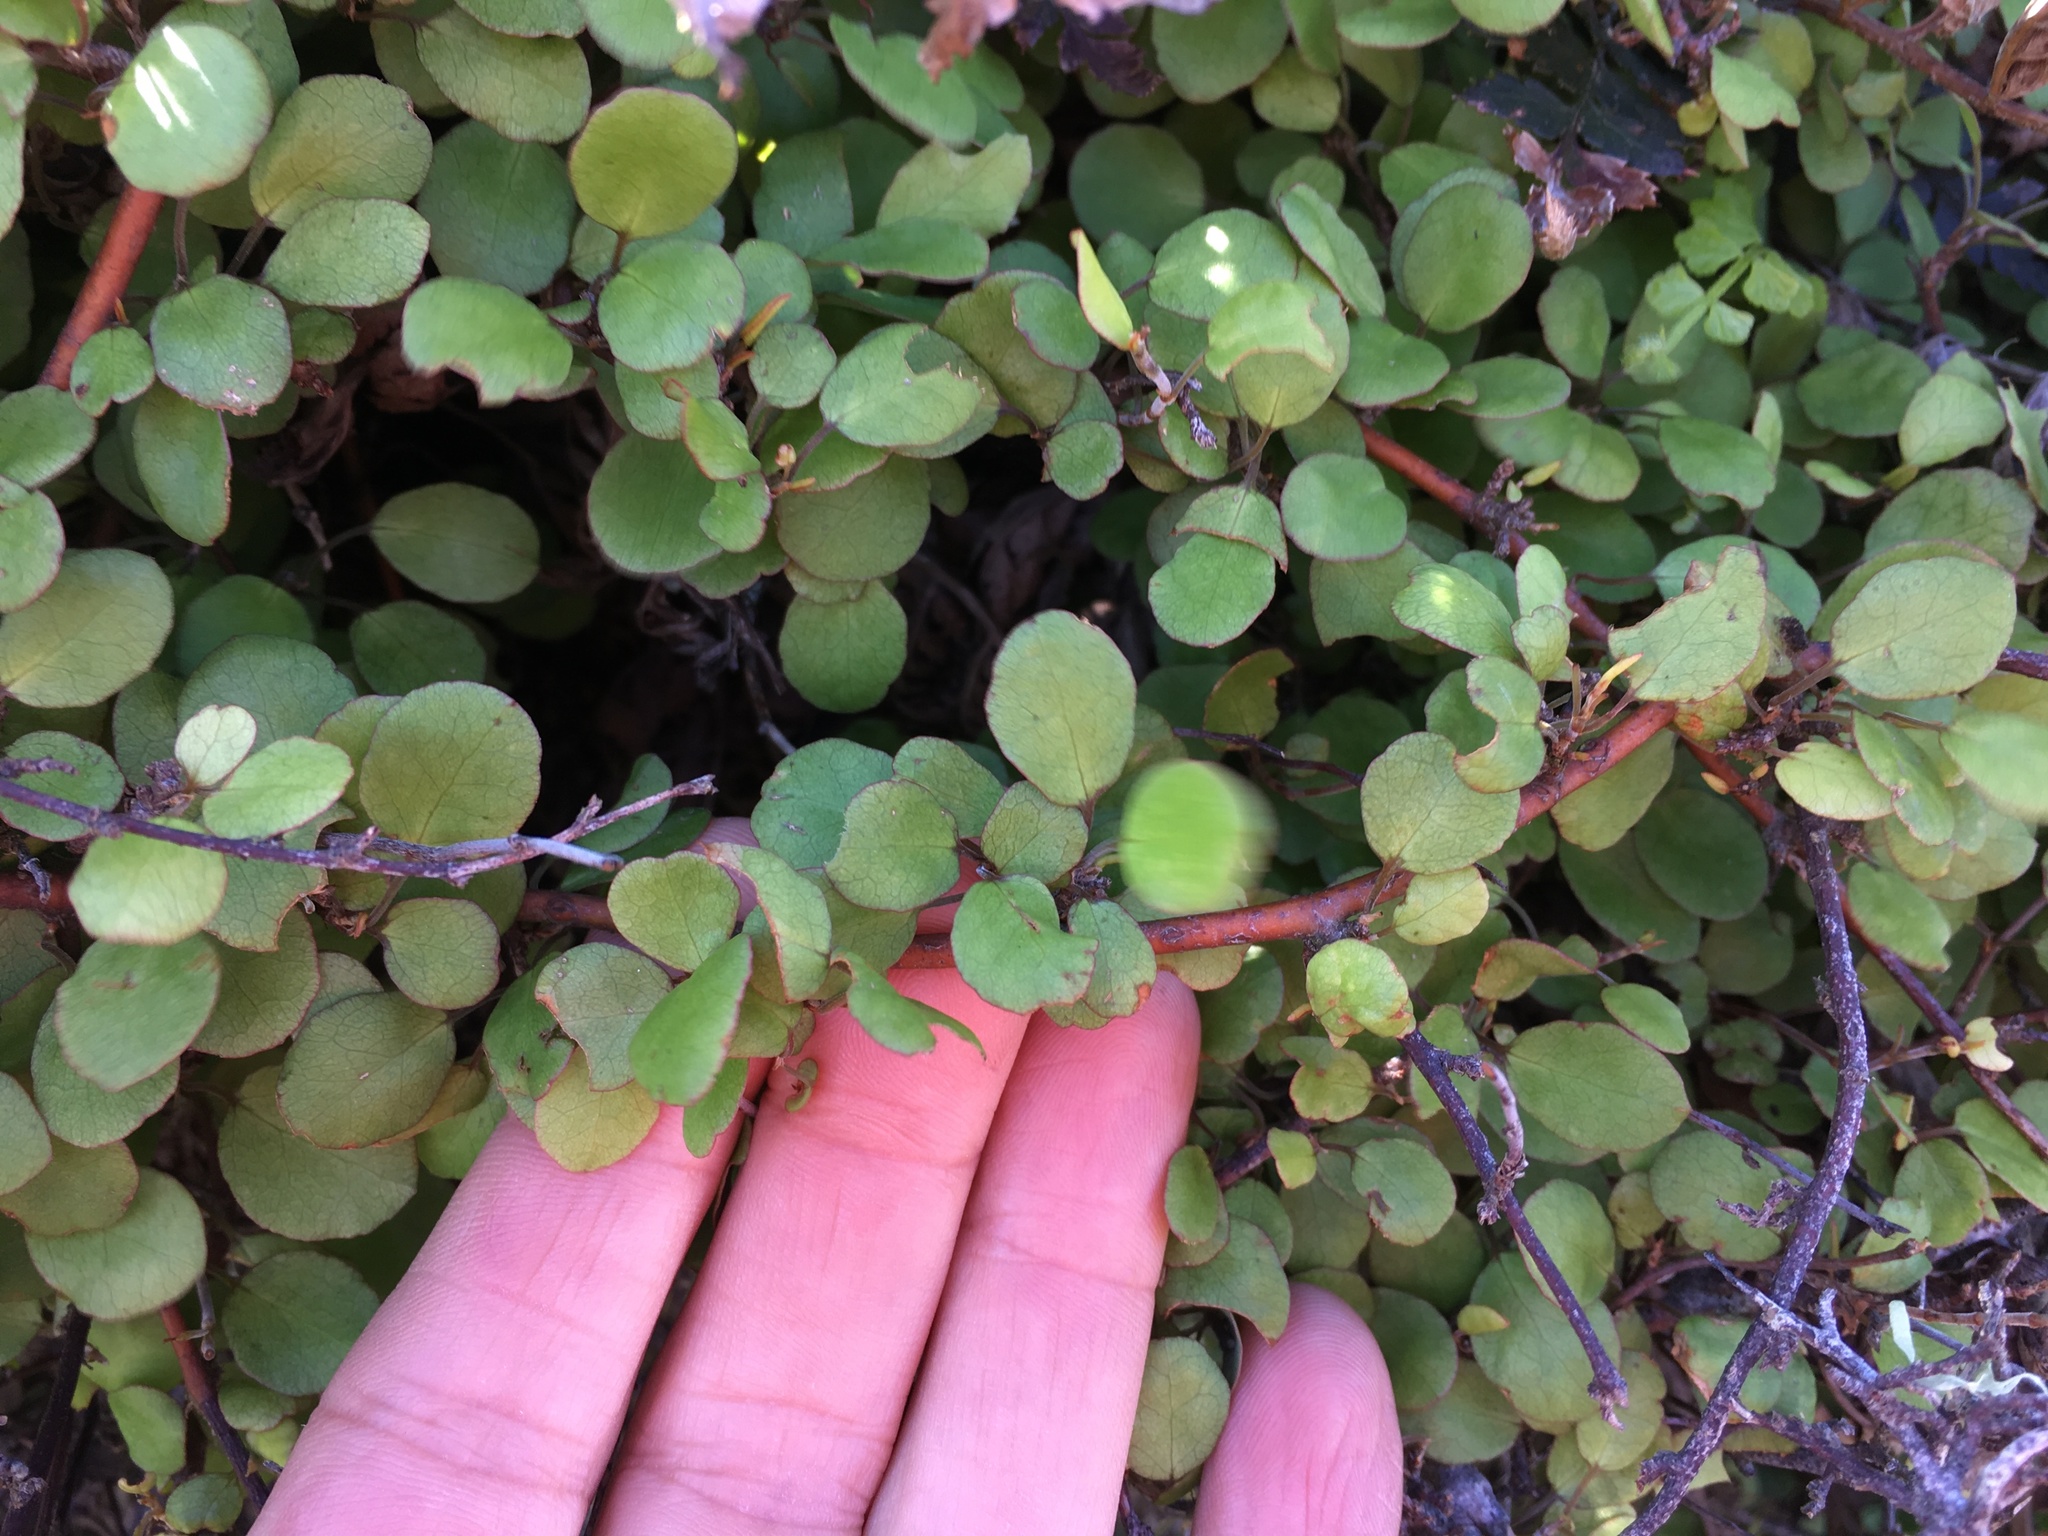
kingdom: Plantae
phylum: Tracheophyta
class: Magnoliopsida
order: Caryophyllales
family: Polygonaceae
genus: Muehlenbeckia
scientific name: Muehlenbeckia complexa
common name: Wireplant
